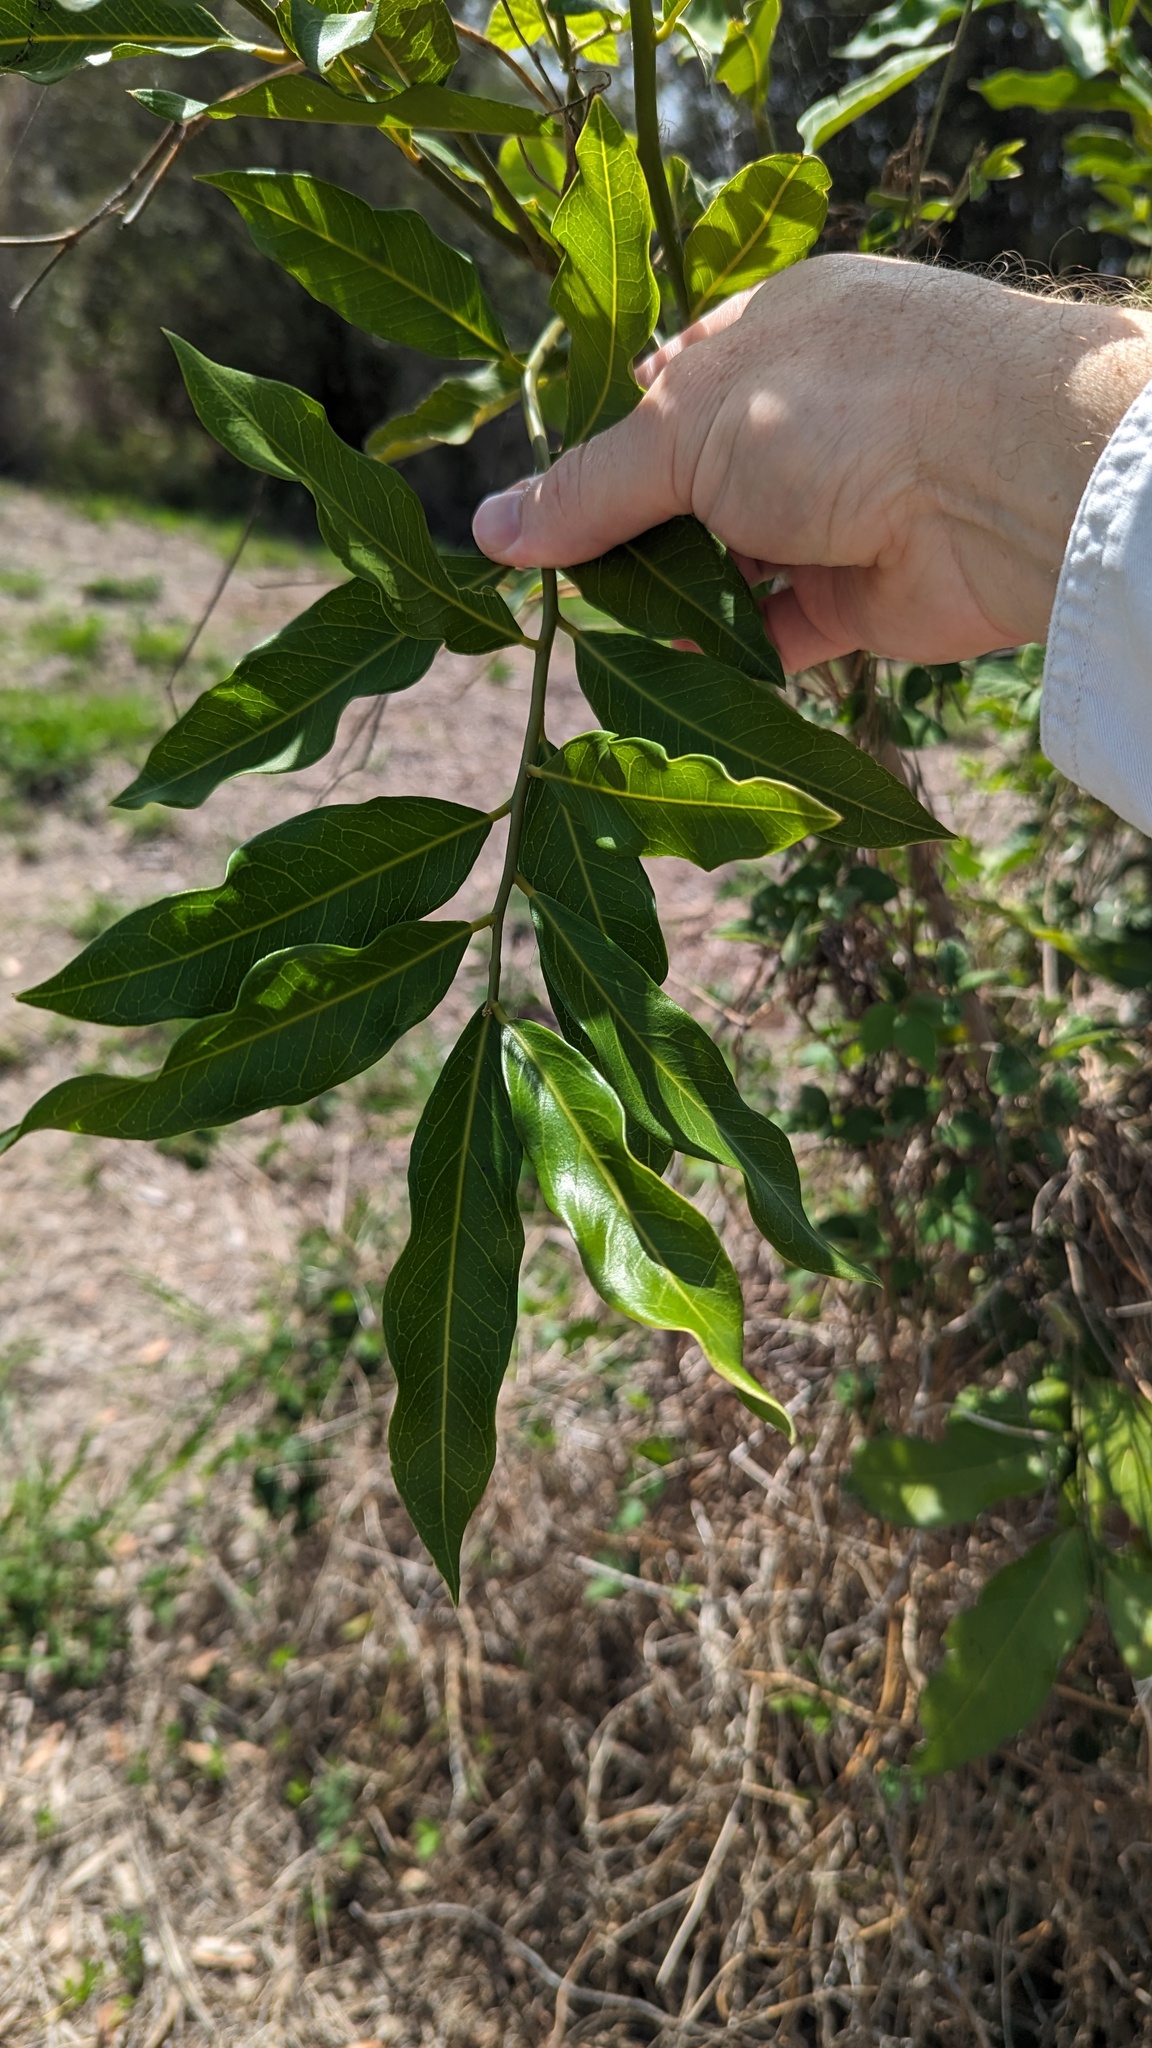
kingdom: Plantae
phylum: Tracheophyta
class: Magnoliopsida
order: Brassicales
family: Capparaceae
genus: Capparis
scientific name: Capparis arborea
